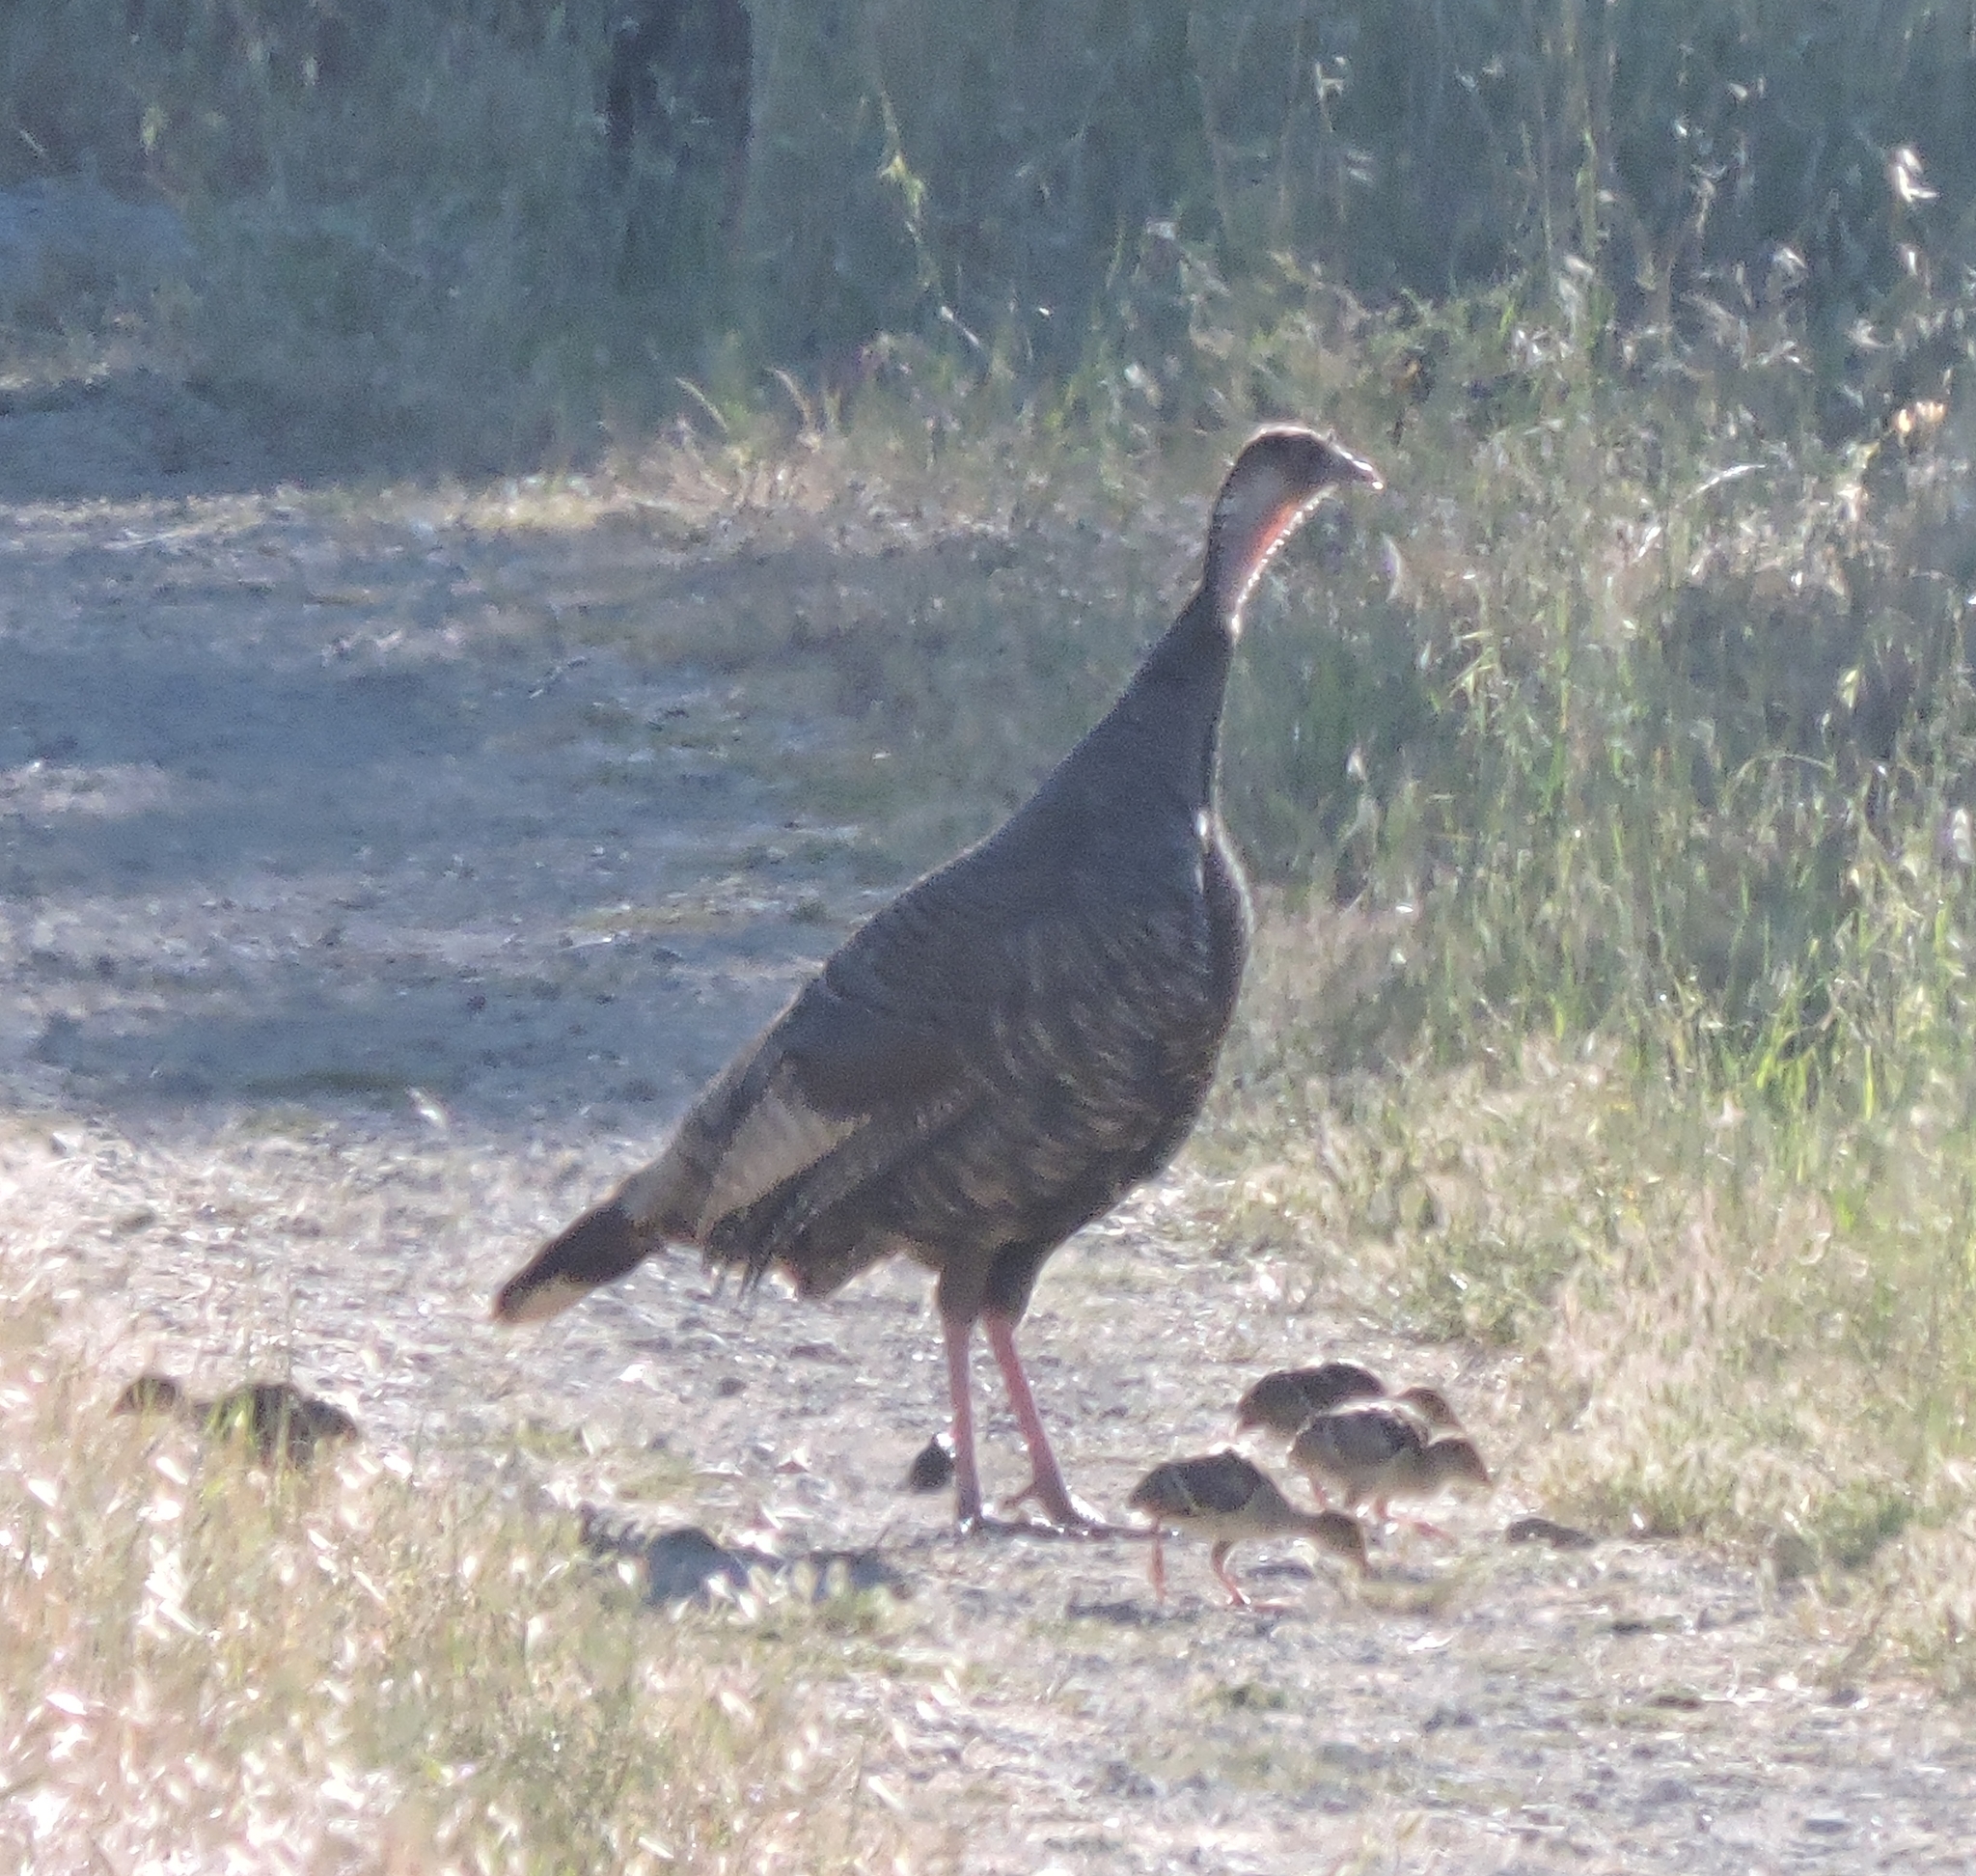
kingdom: Animalia
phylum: Chordata
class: Aves
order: Galliformes
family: Phasianidae
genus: Meleagris
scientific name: Meleagris gallopavo
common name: Wild turkey
